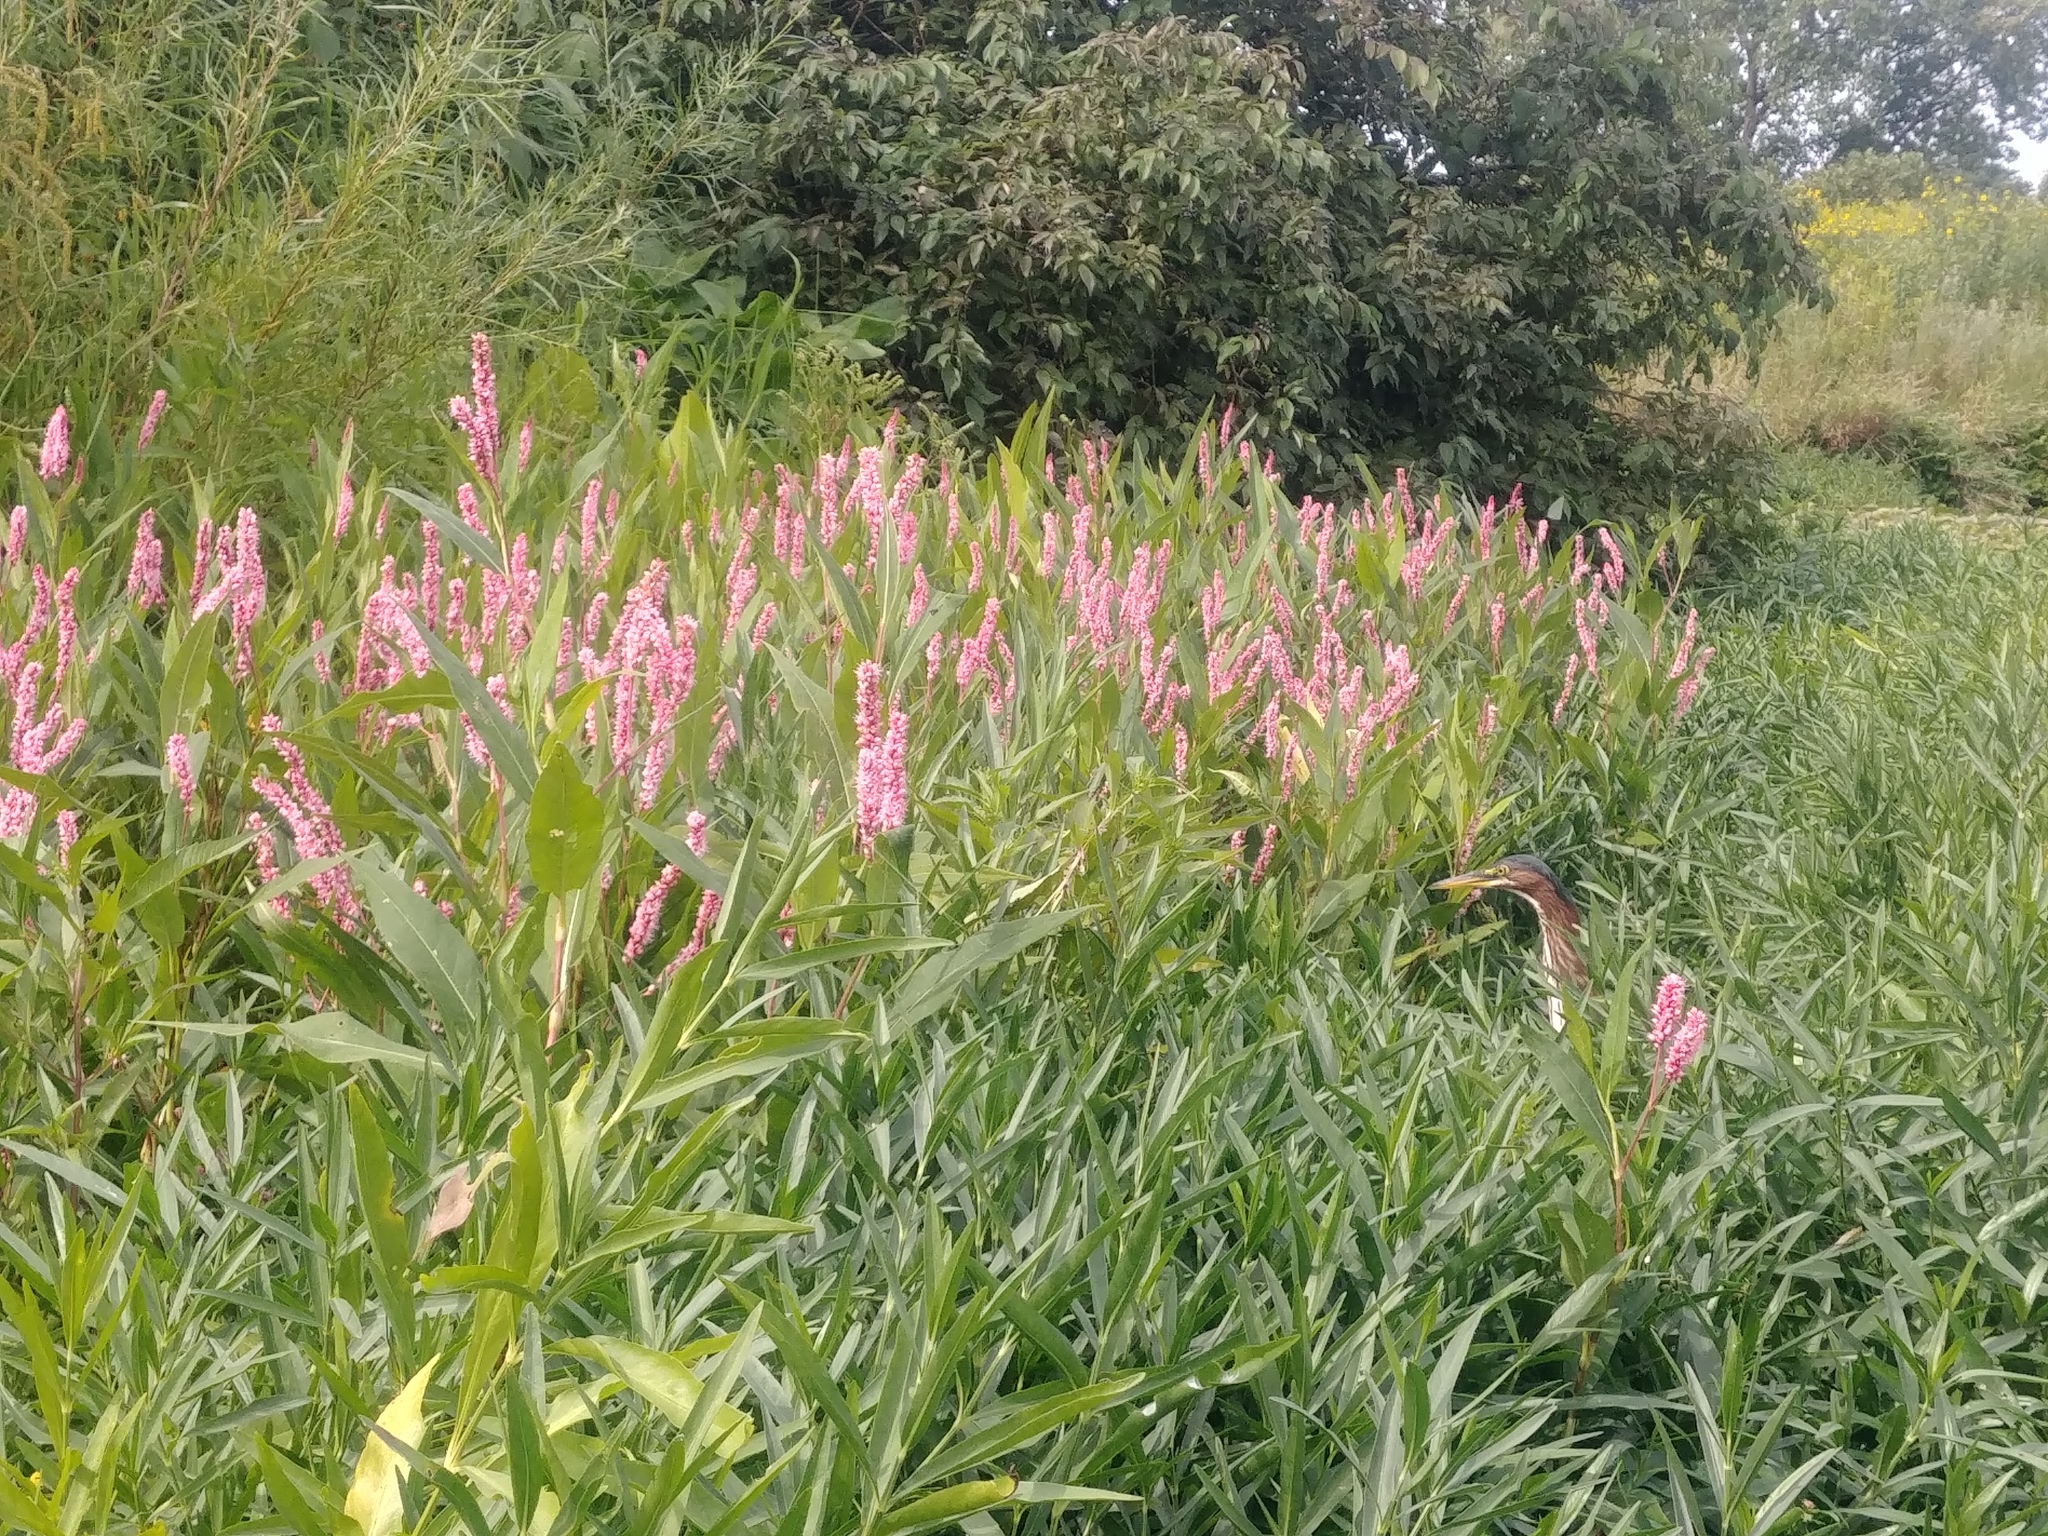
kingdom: Animalia
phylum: Chordata
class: Aves
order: Pelecaniformes
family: Ardeidae
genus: Butorides
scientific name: Butorides virescens
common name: Green heron
